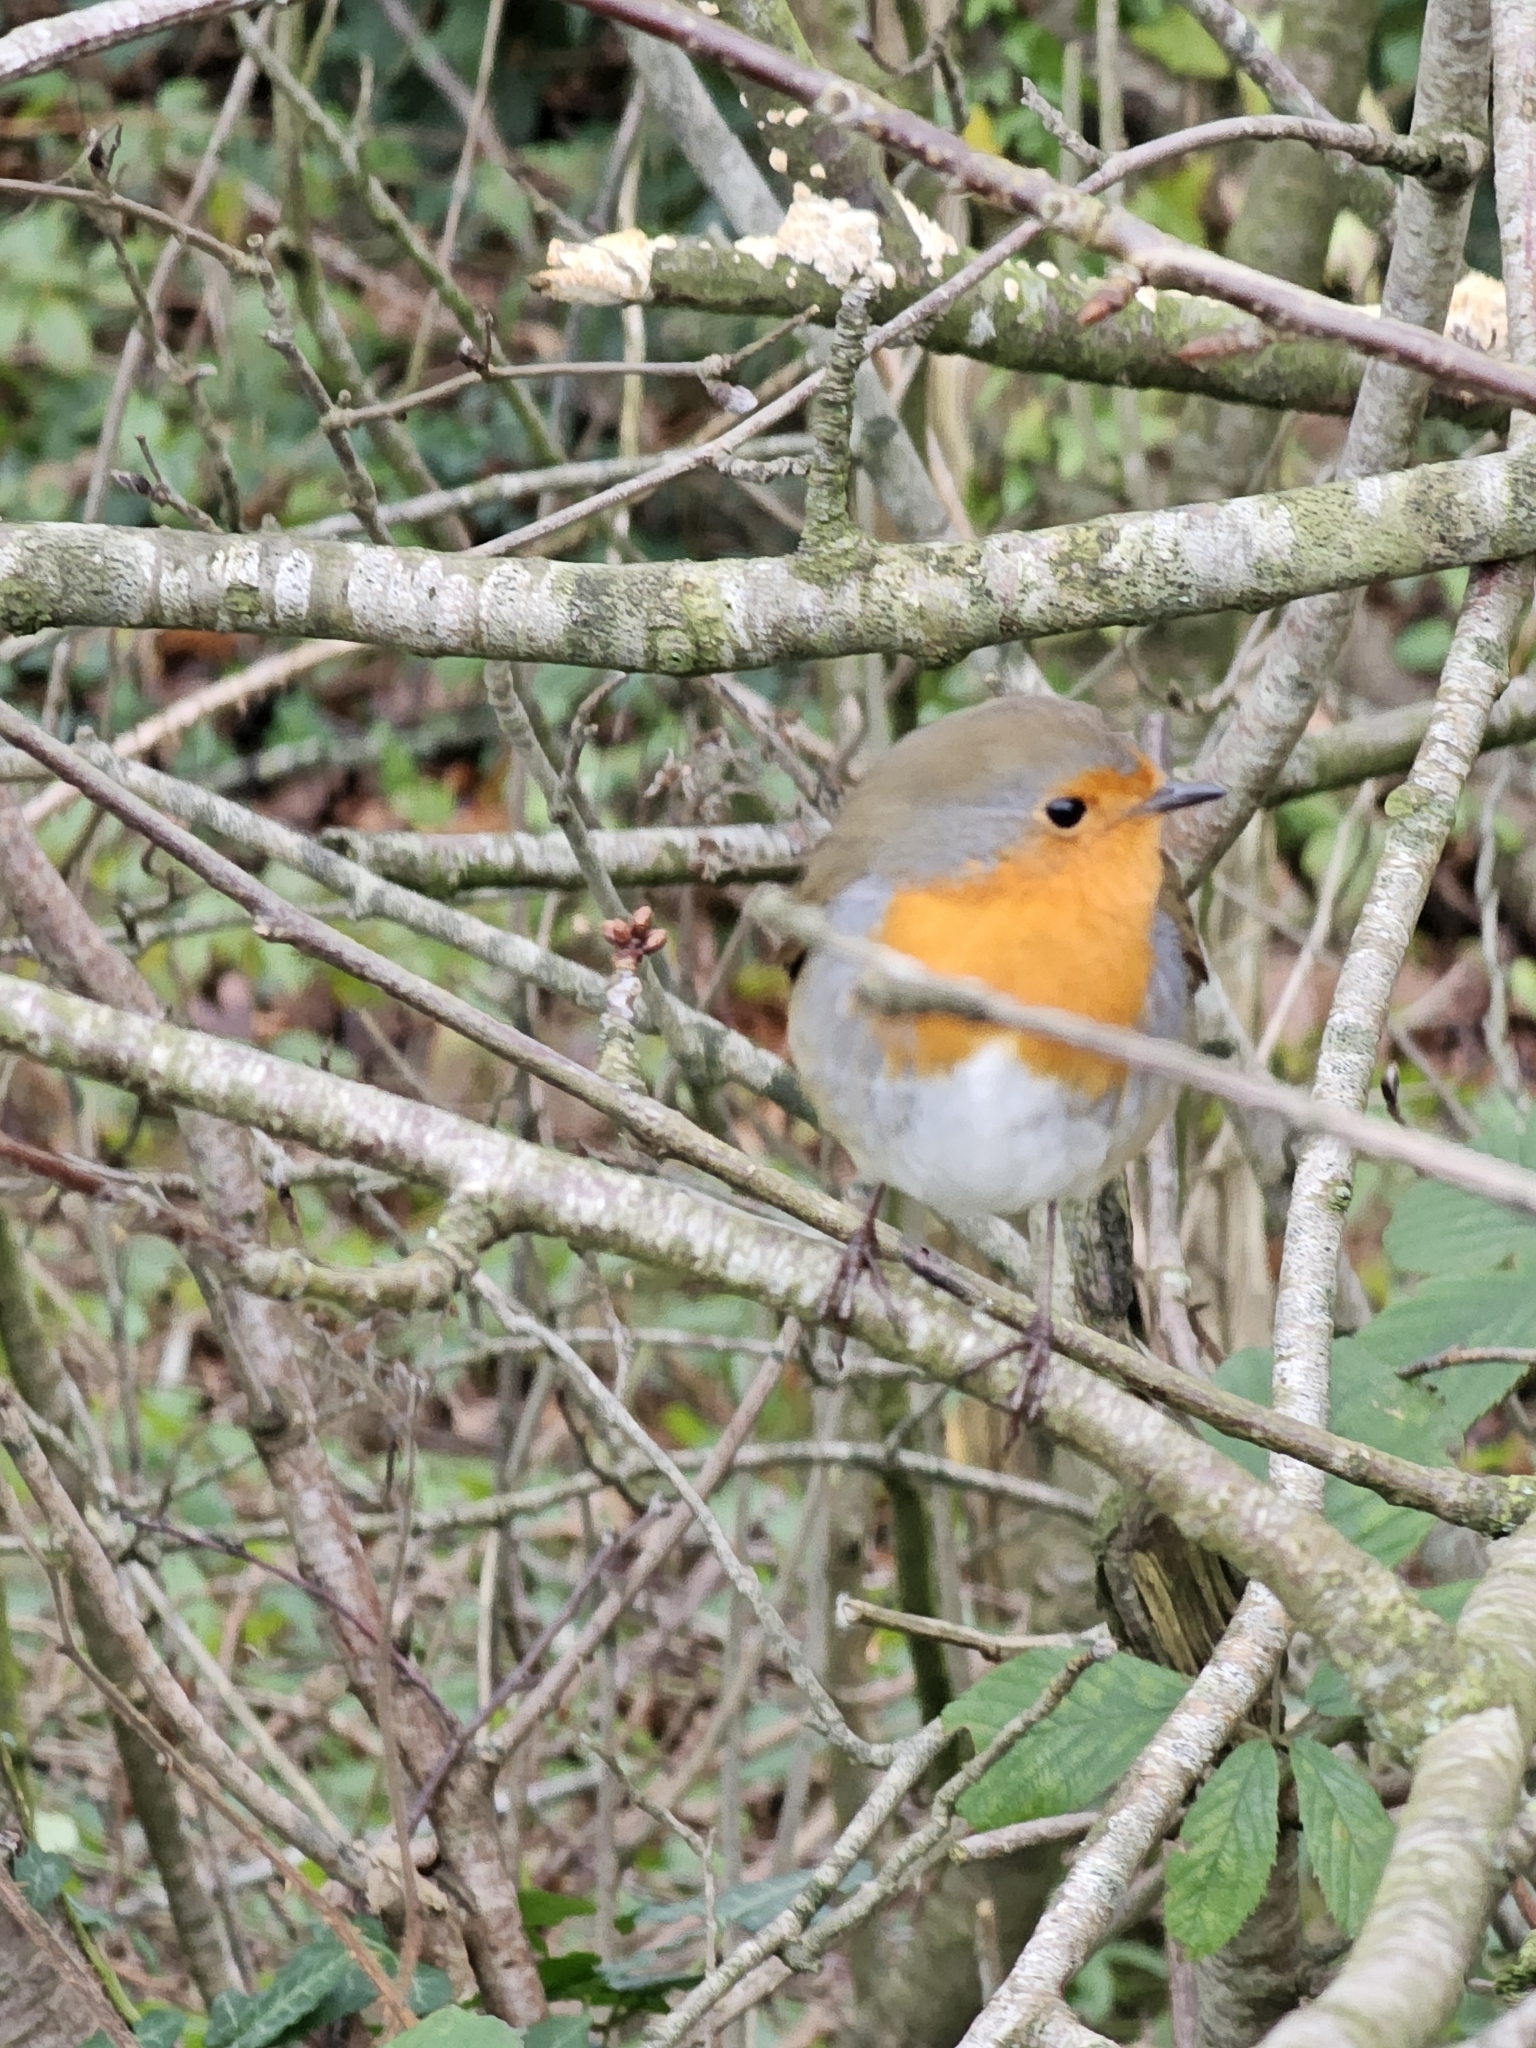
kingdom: Animalia
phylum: Chordata
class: Aves
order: Passeriformes
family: Muscicapidae
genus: Erithacus
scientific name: Erithacus rubecula
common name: European robin
